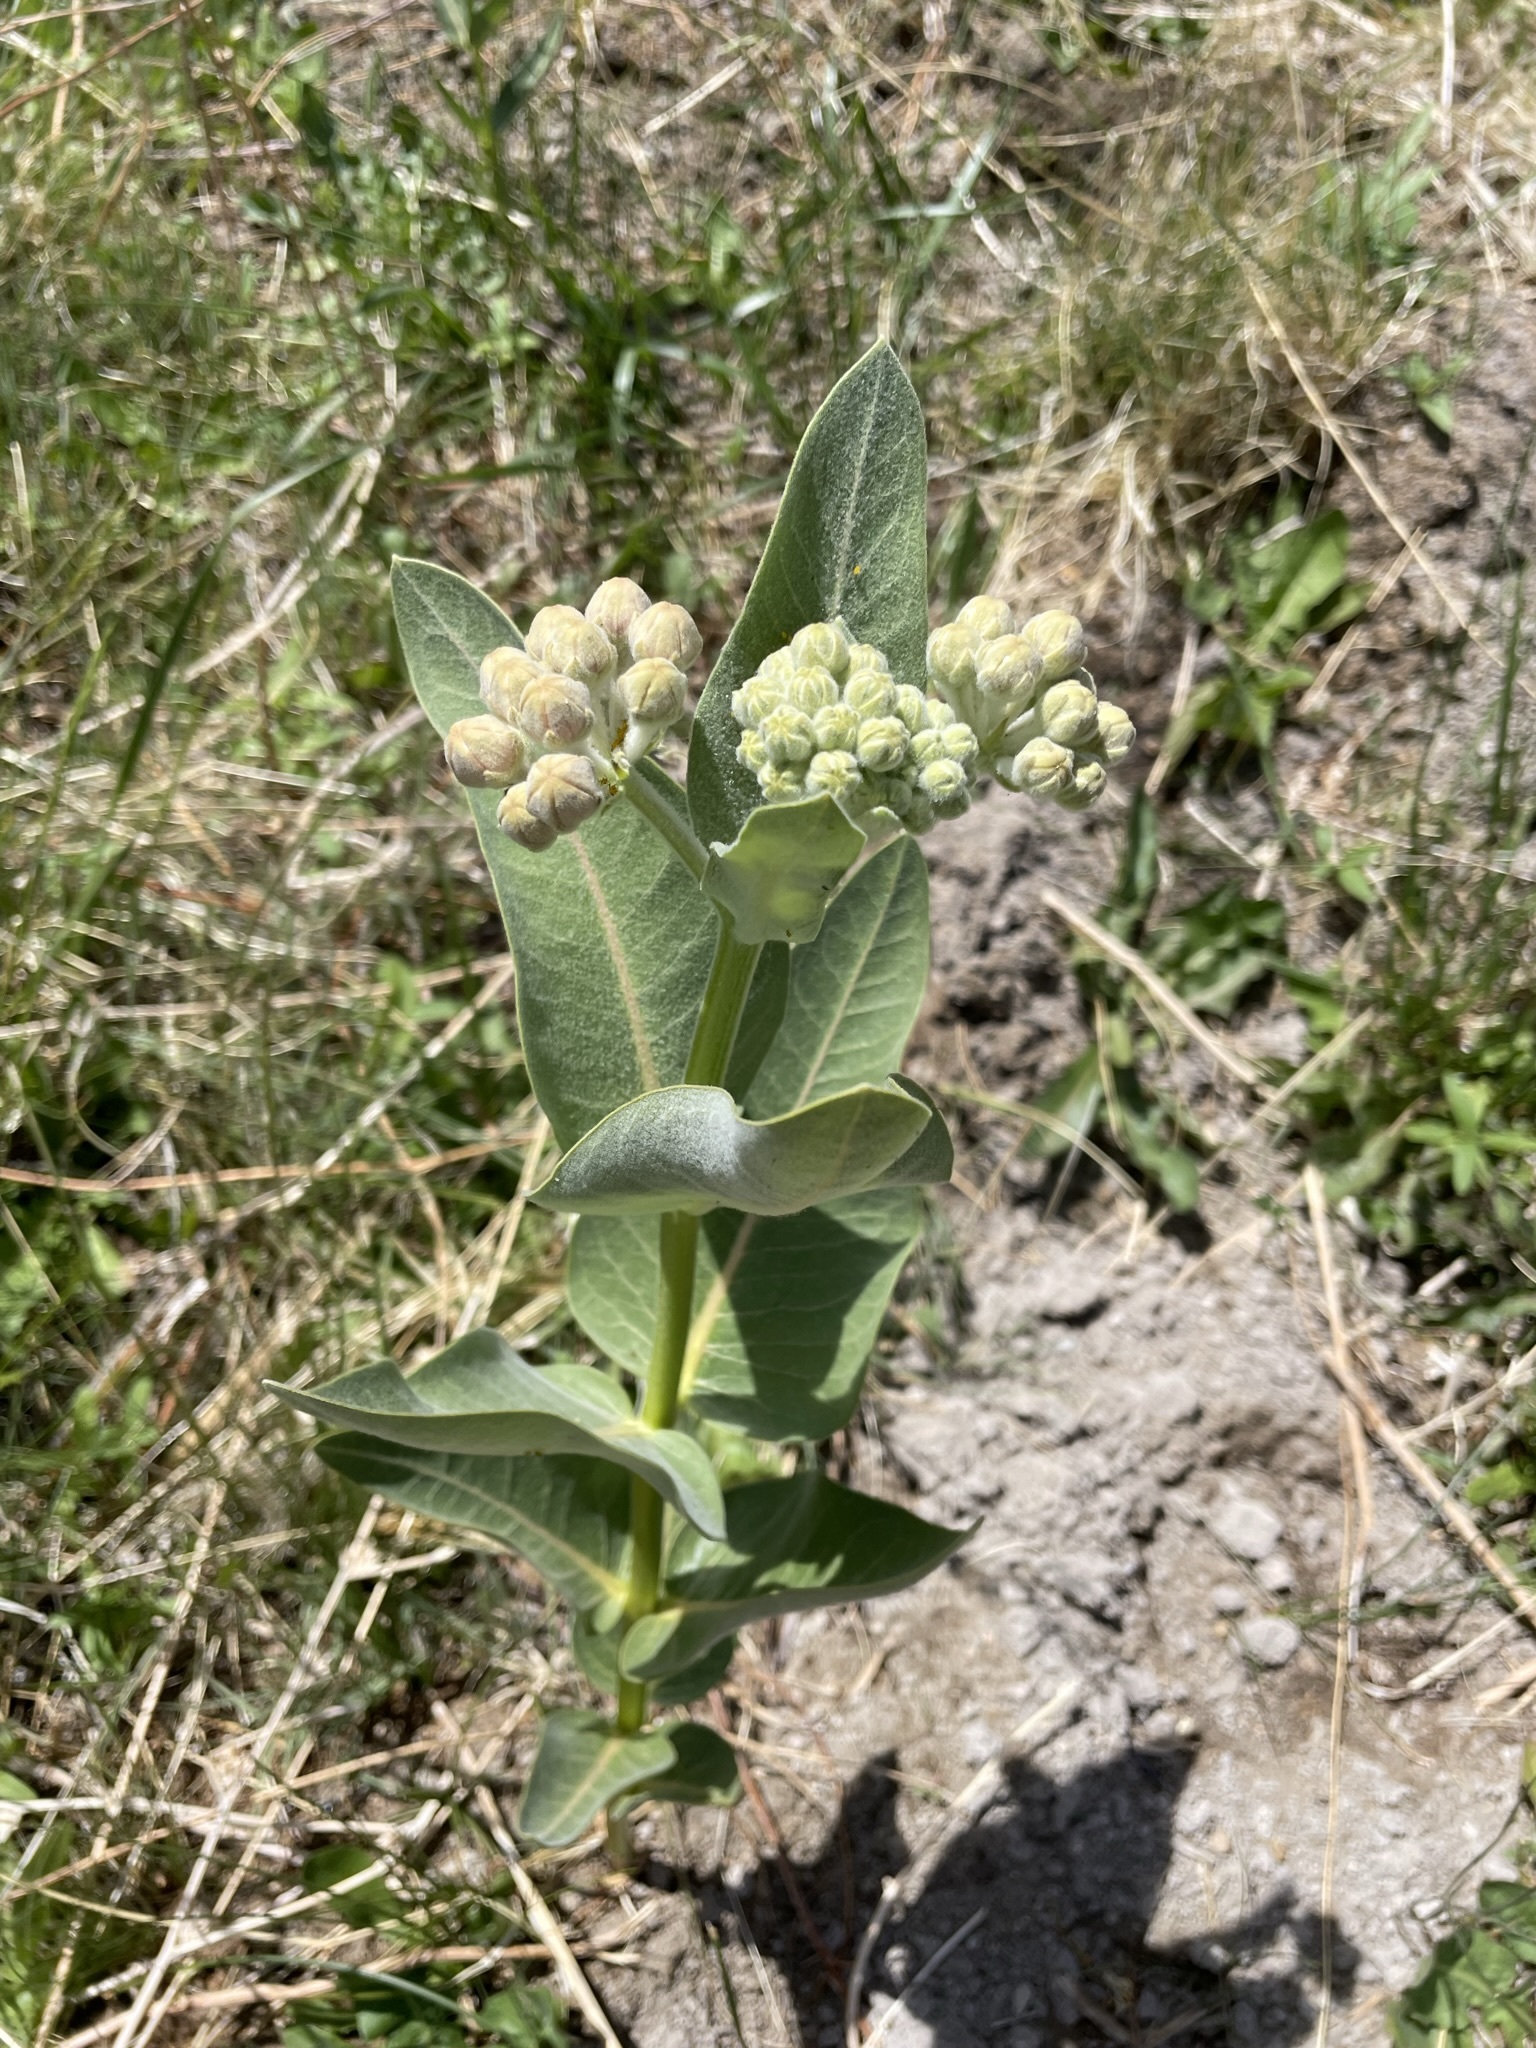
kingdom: Plantae
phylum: Tracheophyta
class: Magnoliopsida
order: Gentianales
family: Apocynaceae
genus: Asclepias
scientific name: Asclepias speciosa
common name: Showy milkweed
